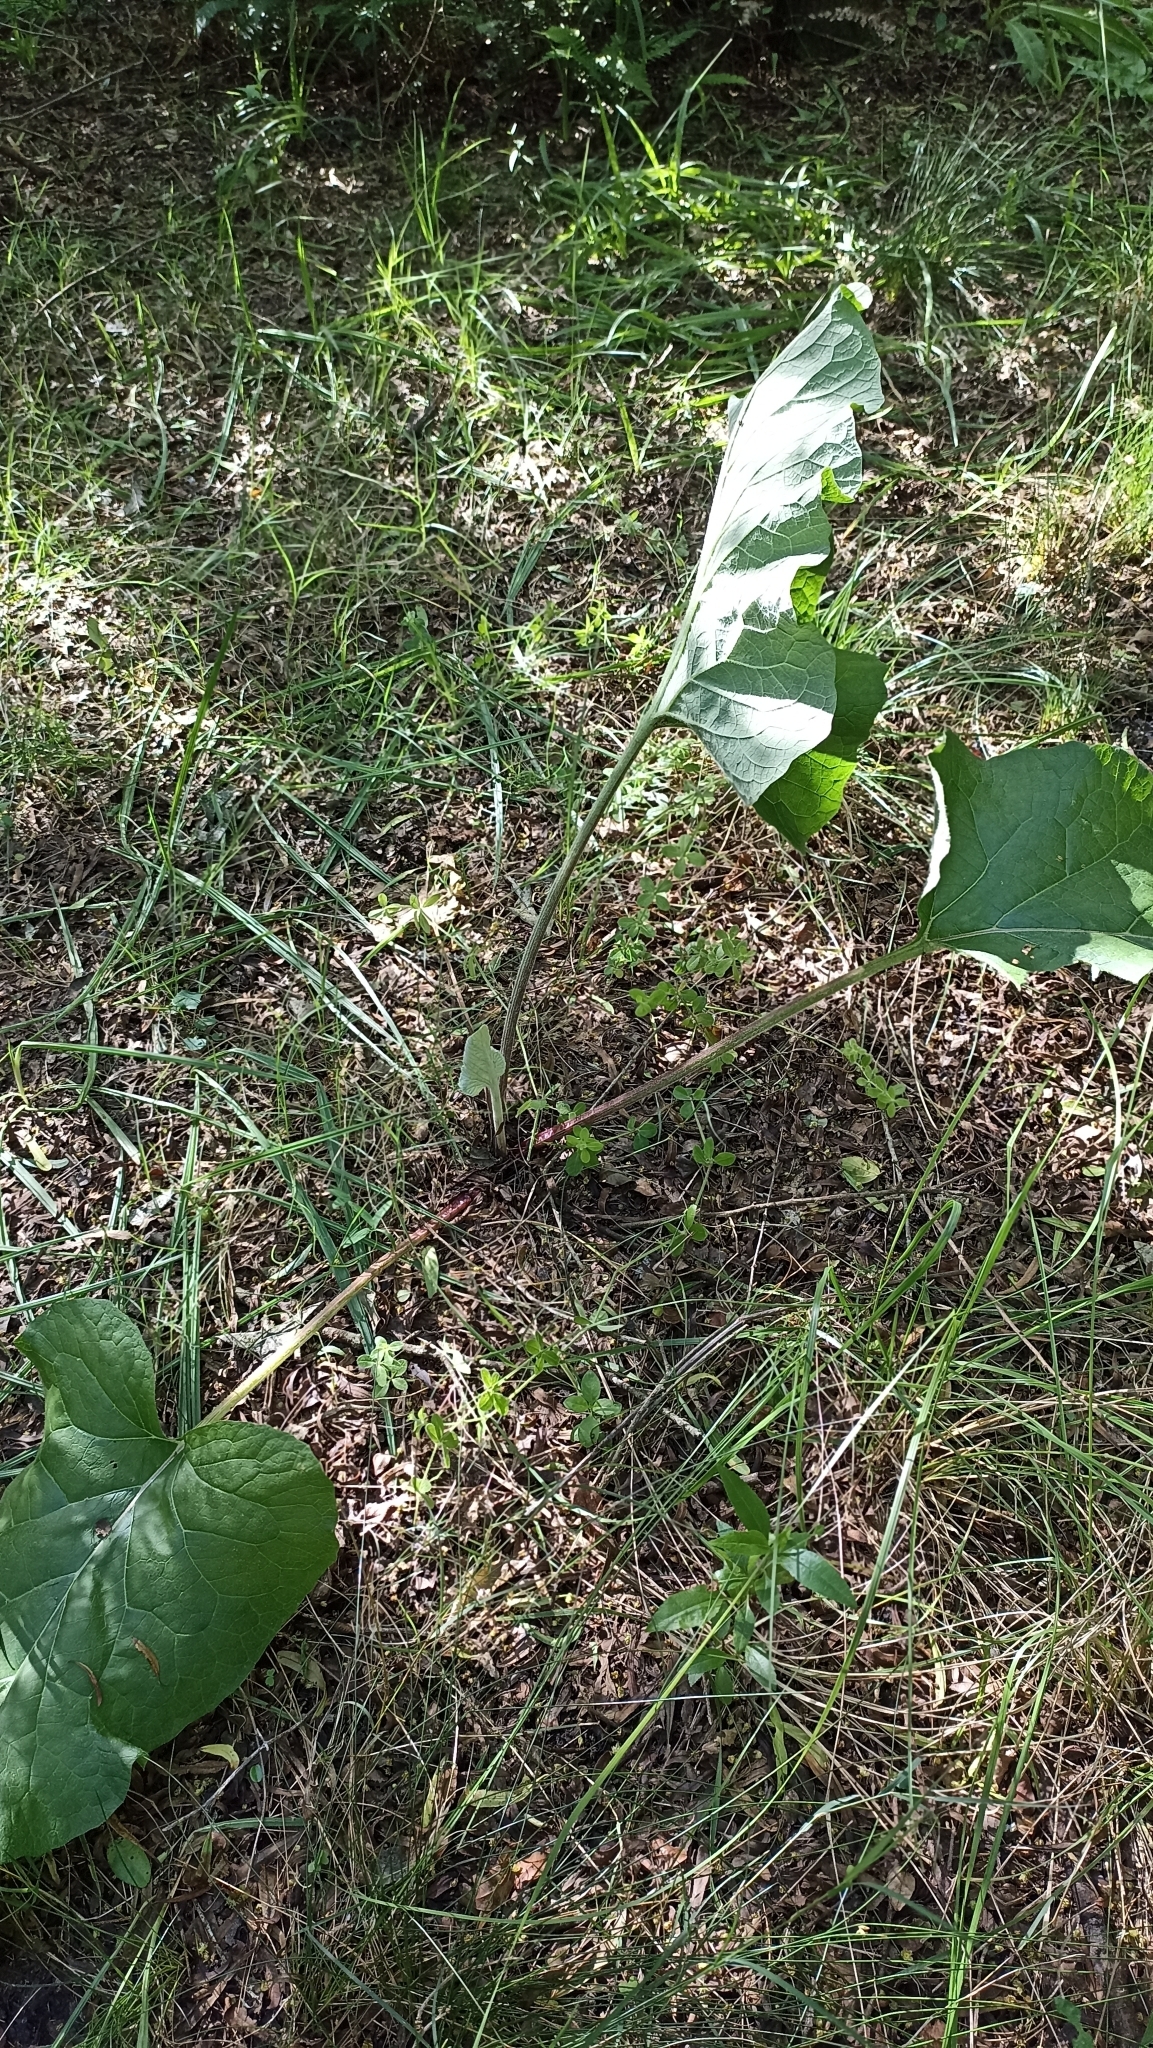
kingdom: Plantae
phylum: Tracheophyta
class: Magnoliopsida
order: Asterales
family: Asteraceae
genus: Arctium
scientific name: Arctium minus
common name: Lesser burdock
